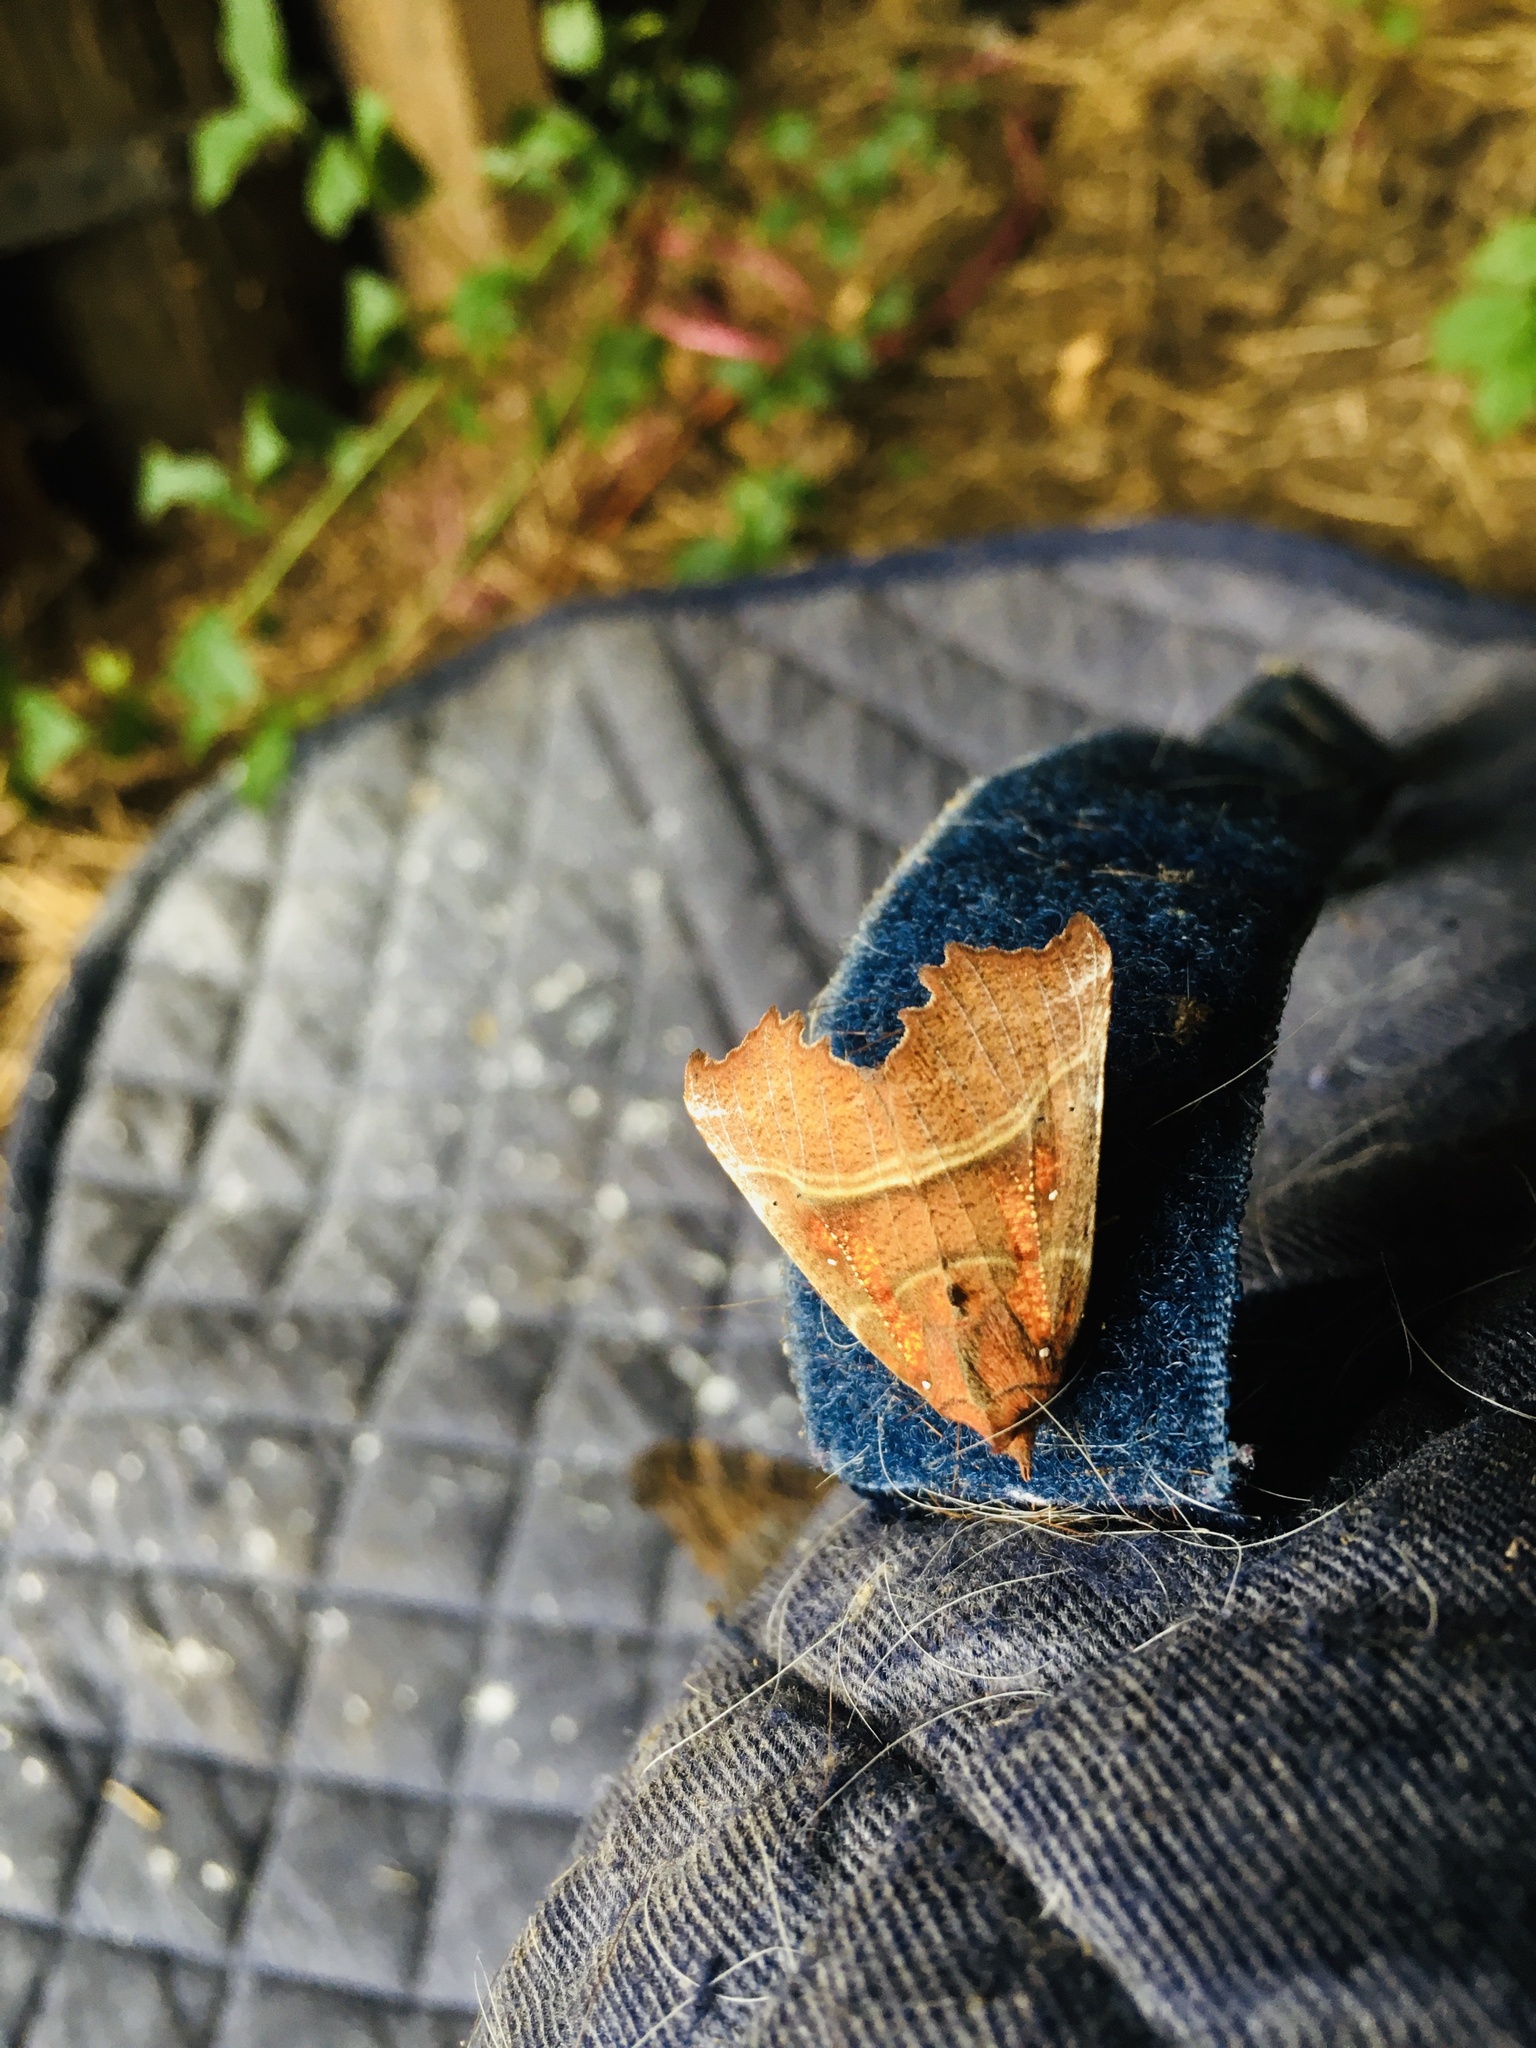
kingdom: Animalia
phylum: Arthropoda
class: Insecta
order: Lepidoptera
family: Erebidae
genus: Scoliopteryx
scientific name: Scoliopteryx libatrix
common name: Herald
